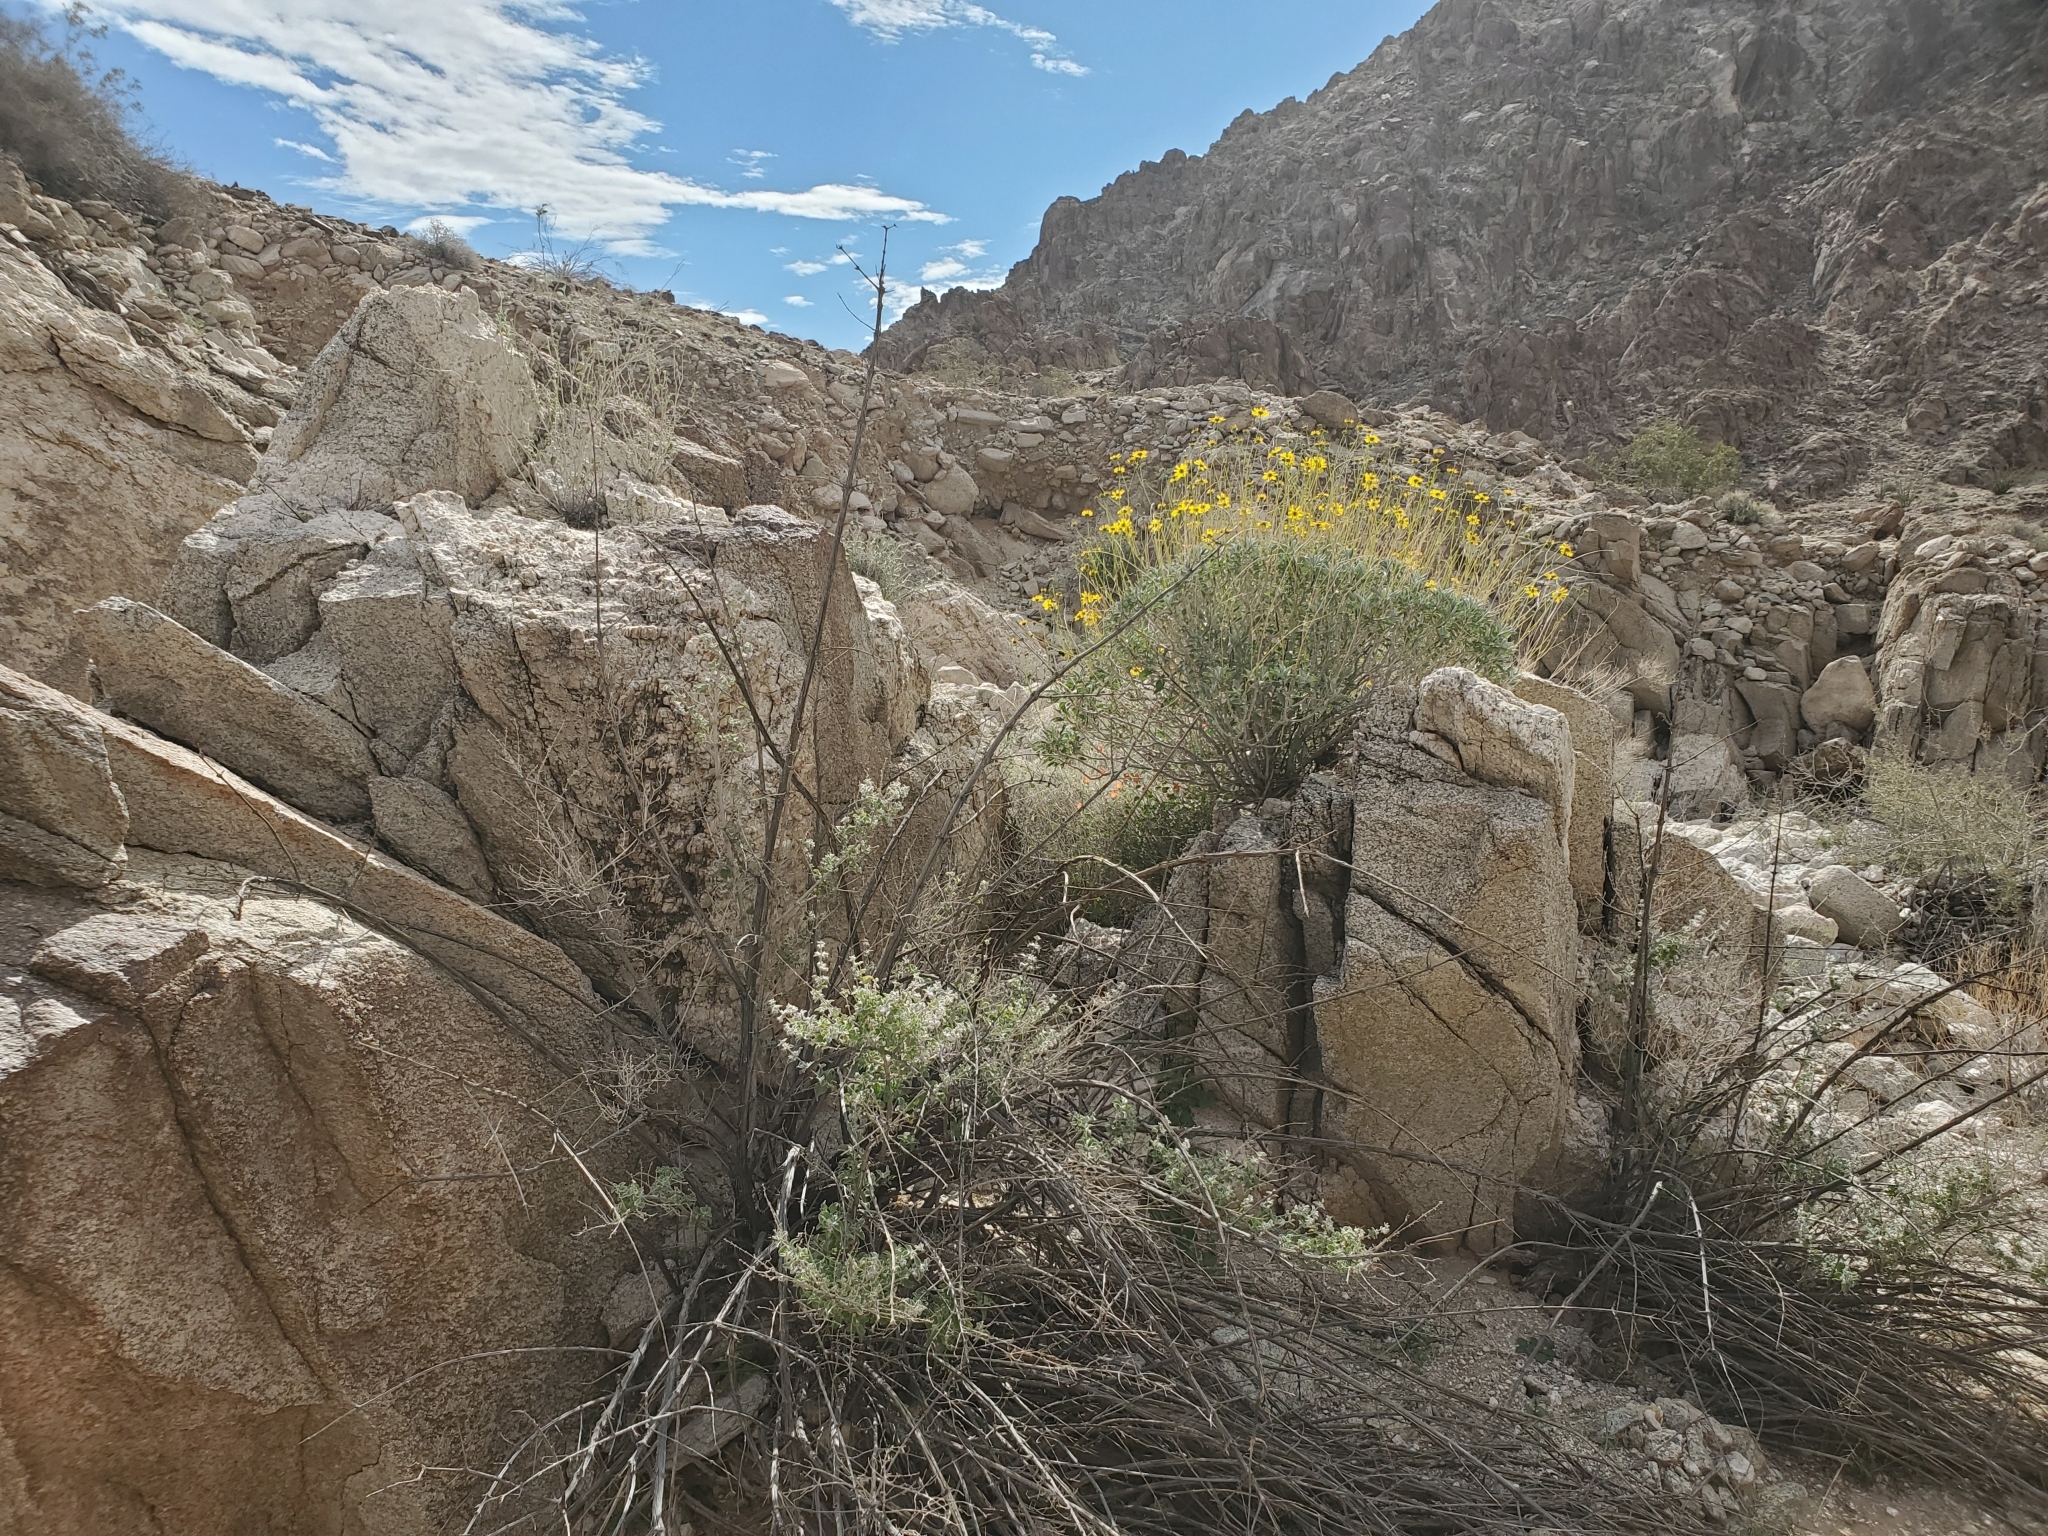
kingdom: Plantae
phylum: Tracheophyta
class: Magnoliopsida
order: Lamiales
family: Lamiaceae
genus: Condea
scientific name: Condea emoryi
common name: Chia
